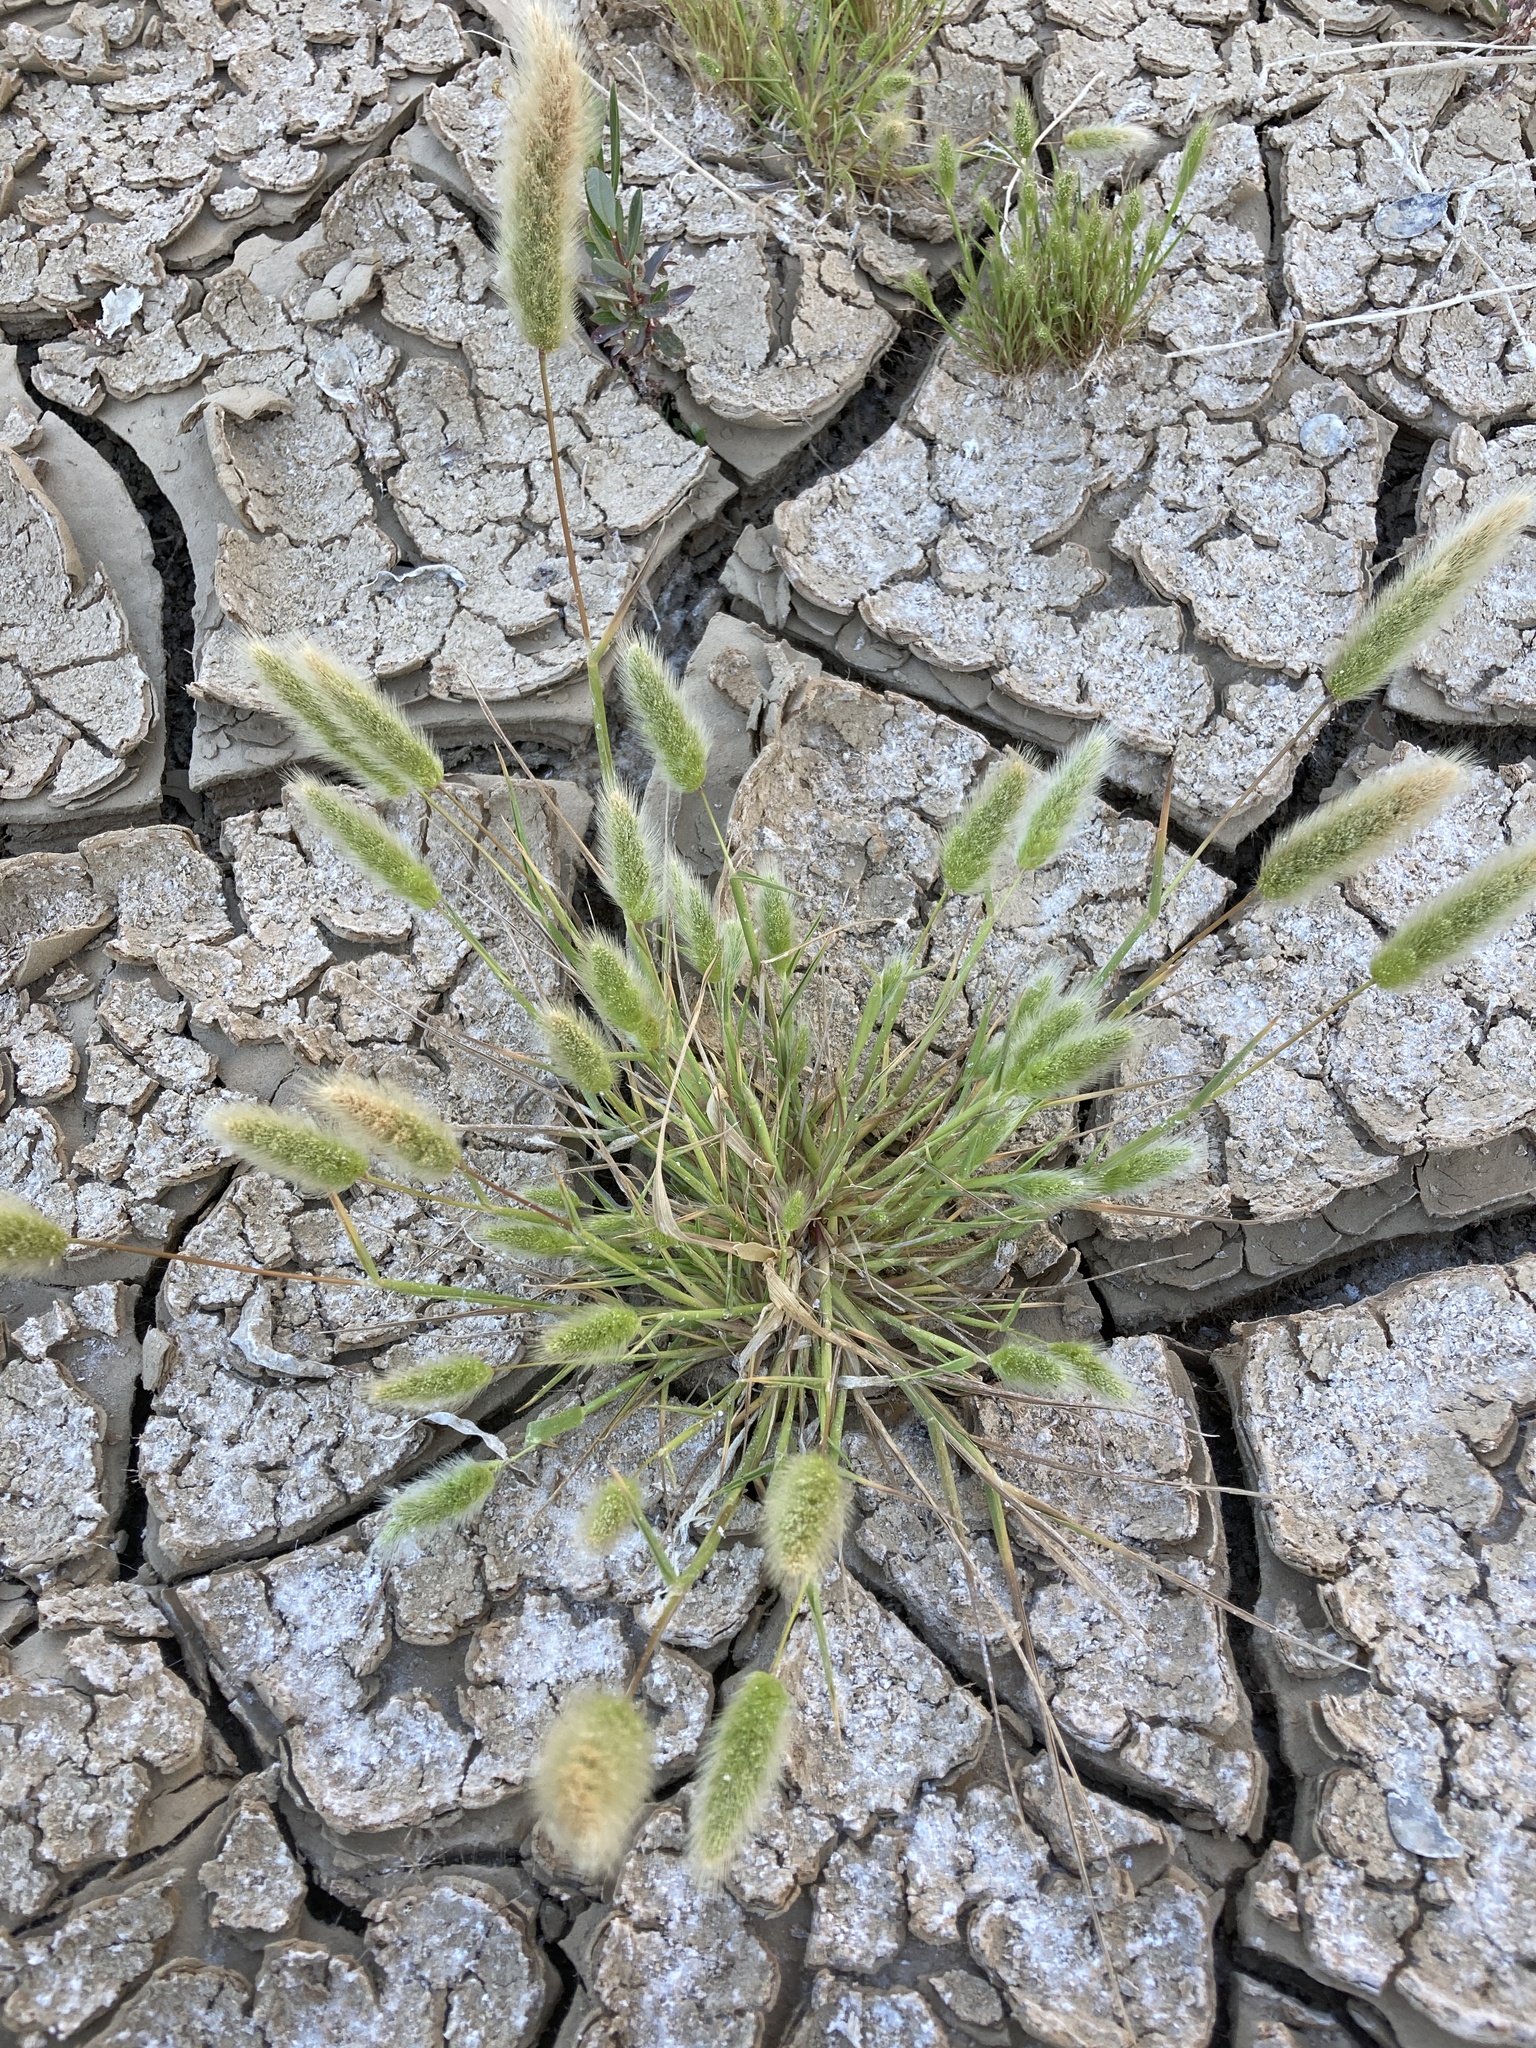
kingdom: Plantae
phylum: Tracheophyta
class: Liliopsida
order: Poales
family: Poaceae
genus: Polypogon
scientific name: Polypogon monspeliensis
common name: Annual rabbitsfoot grass
